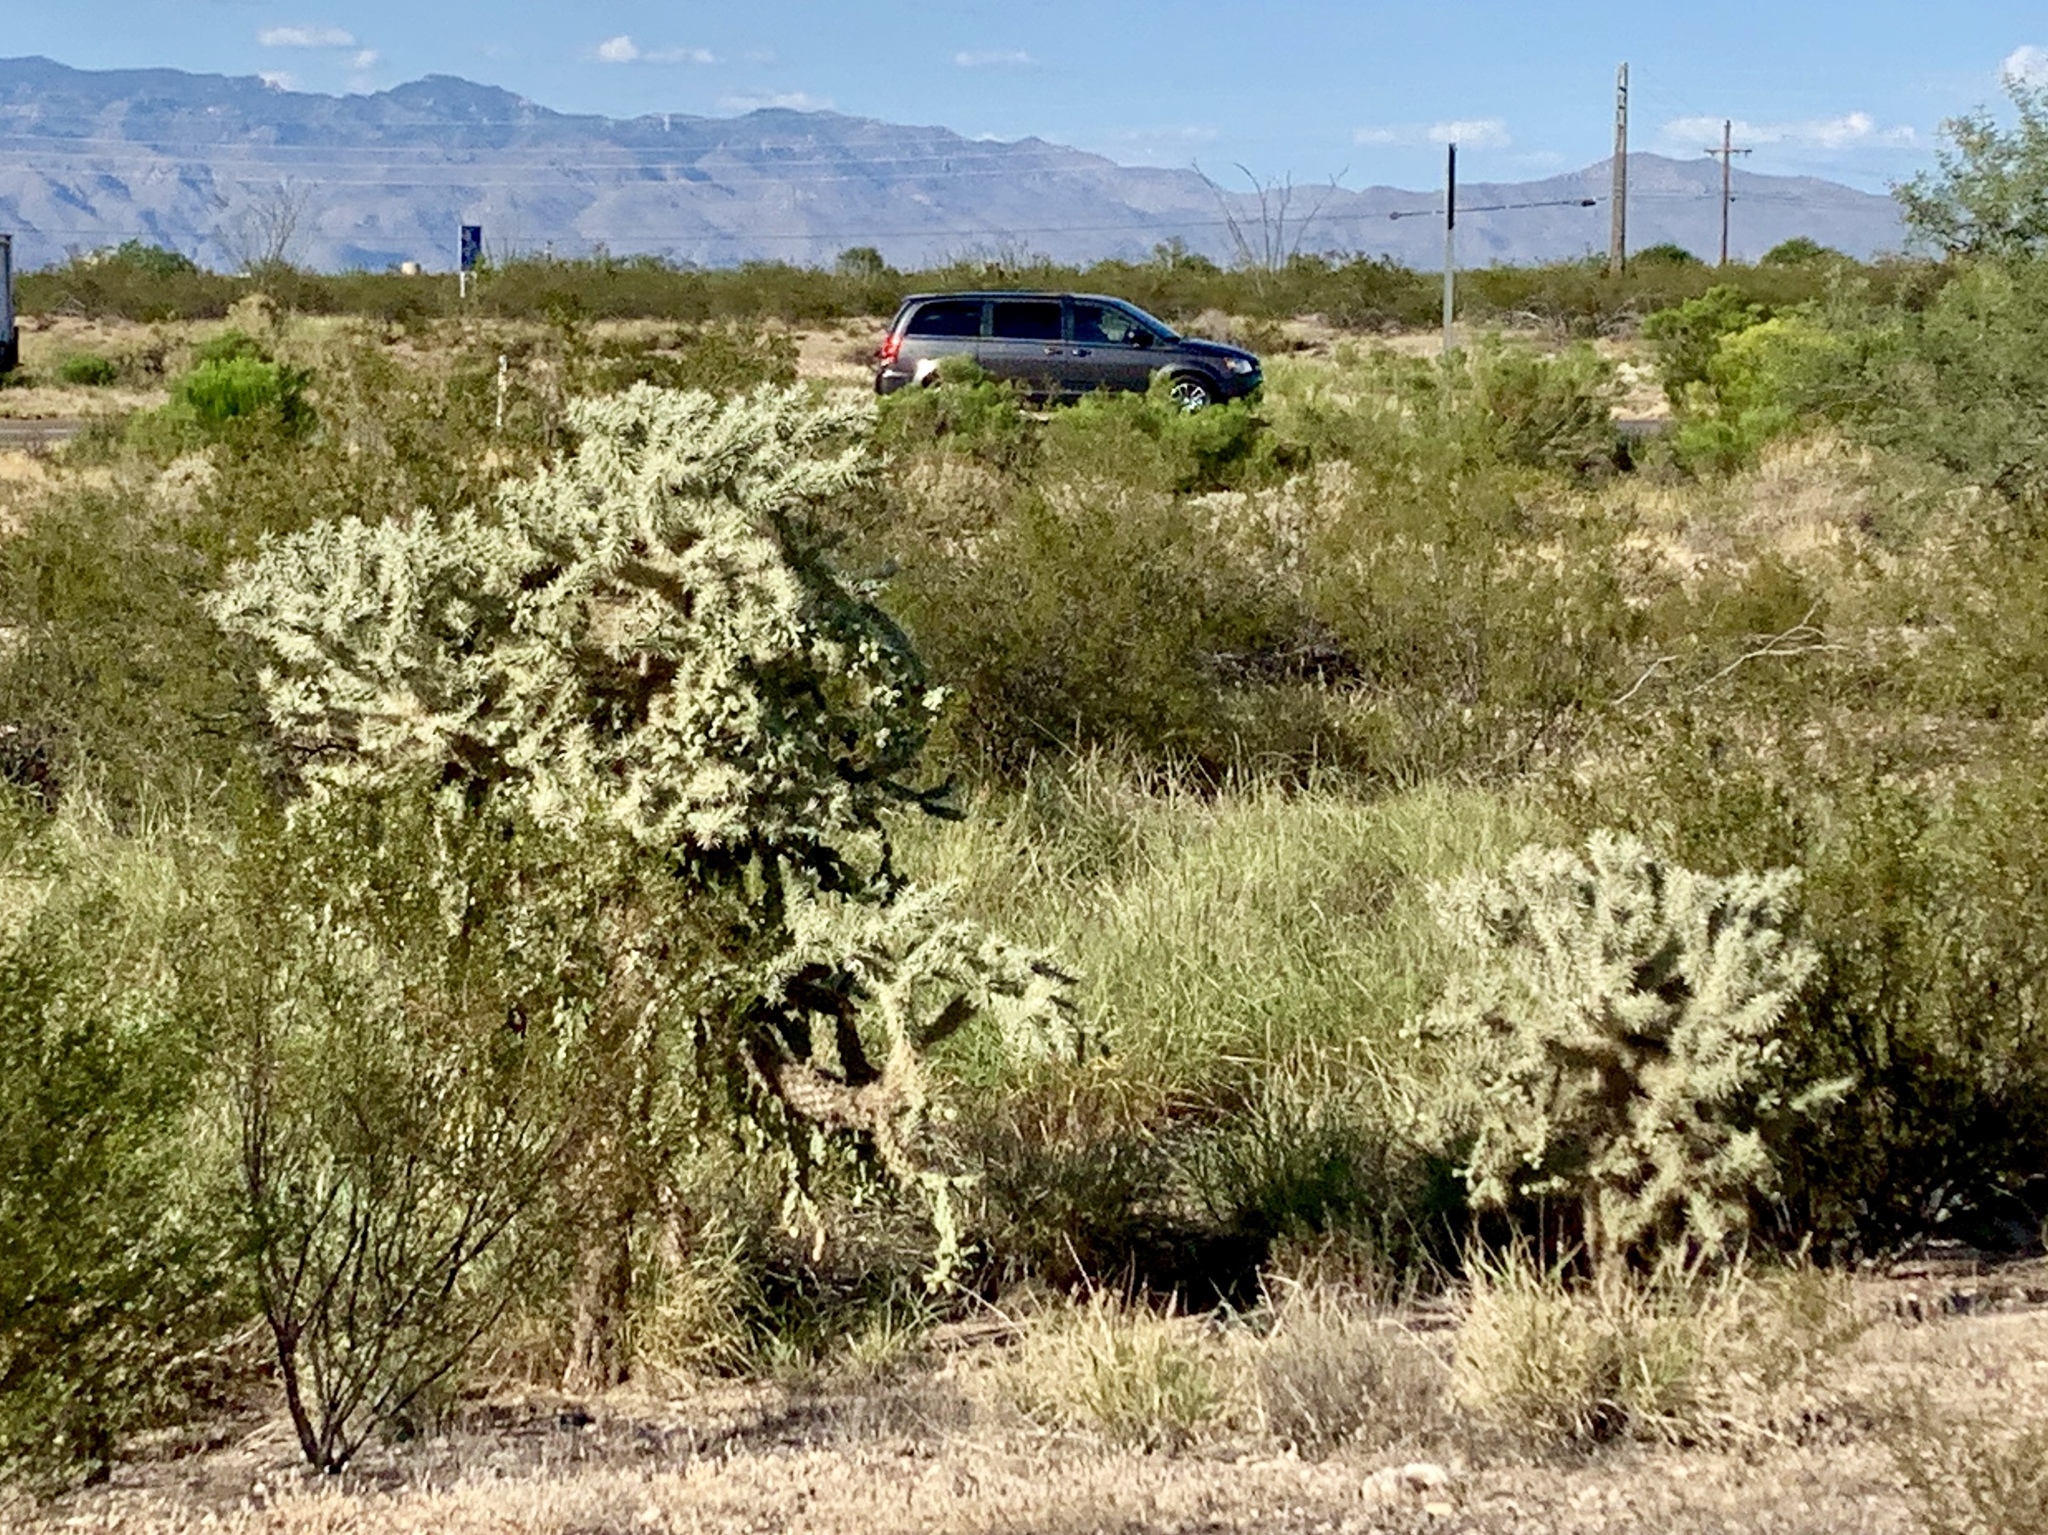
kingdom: Plantae
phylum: Tracheophyta
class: Magnoliopsida
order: Caryophyllales
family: Cactaceae
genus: Cylindropuntia
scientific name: Cylindropuntia fulgida
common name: Jumping cholla
